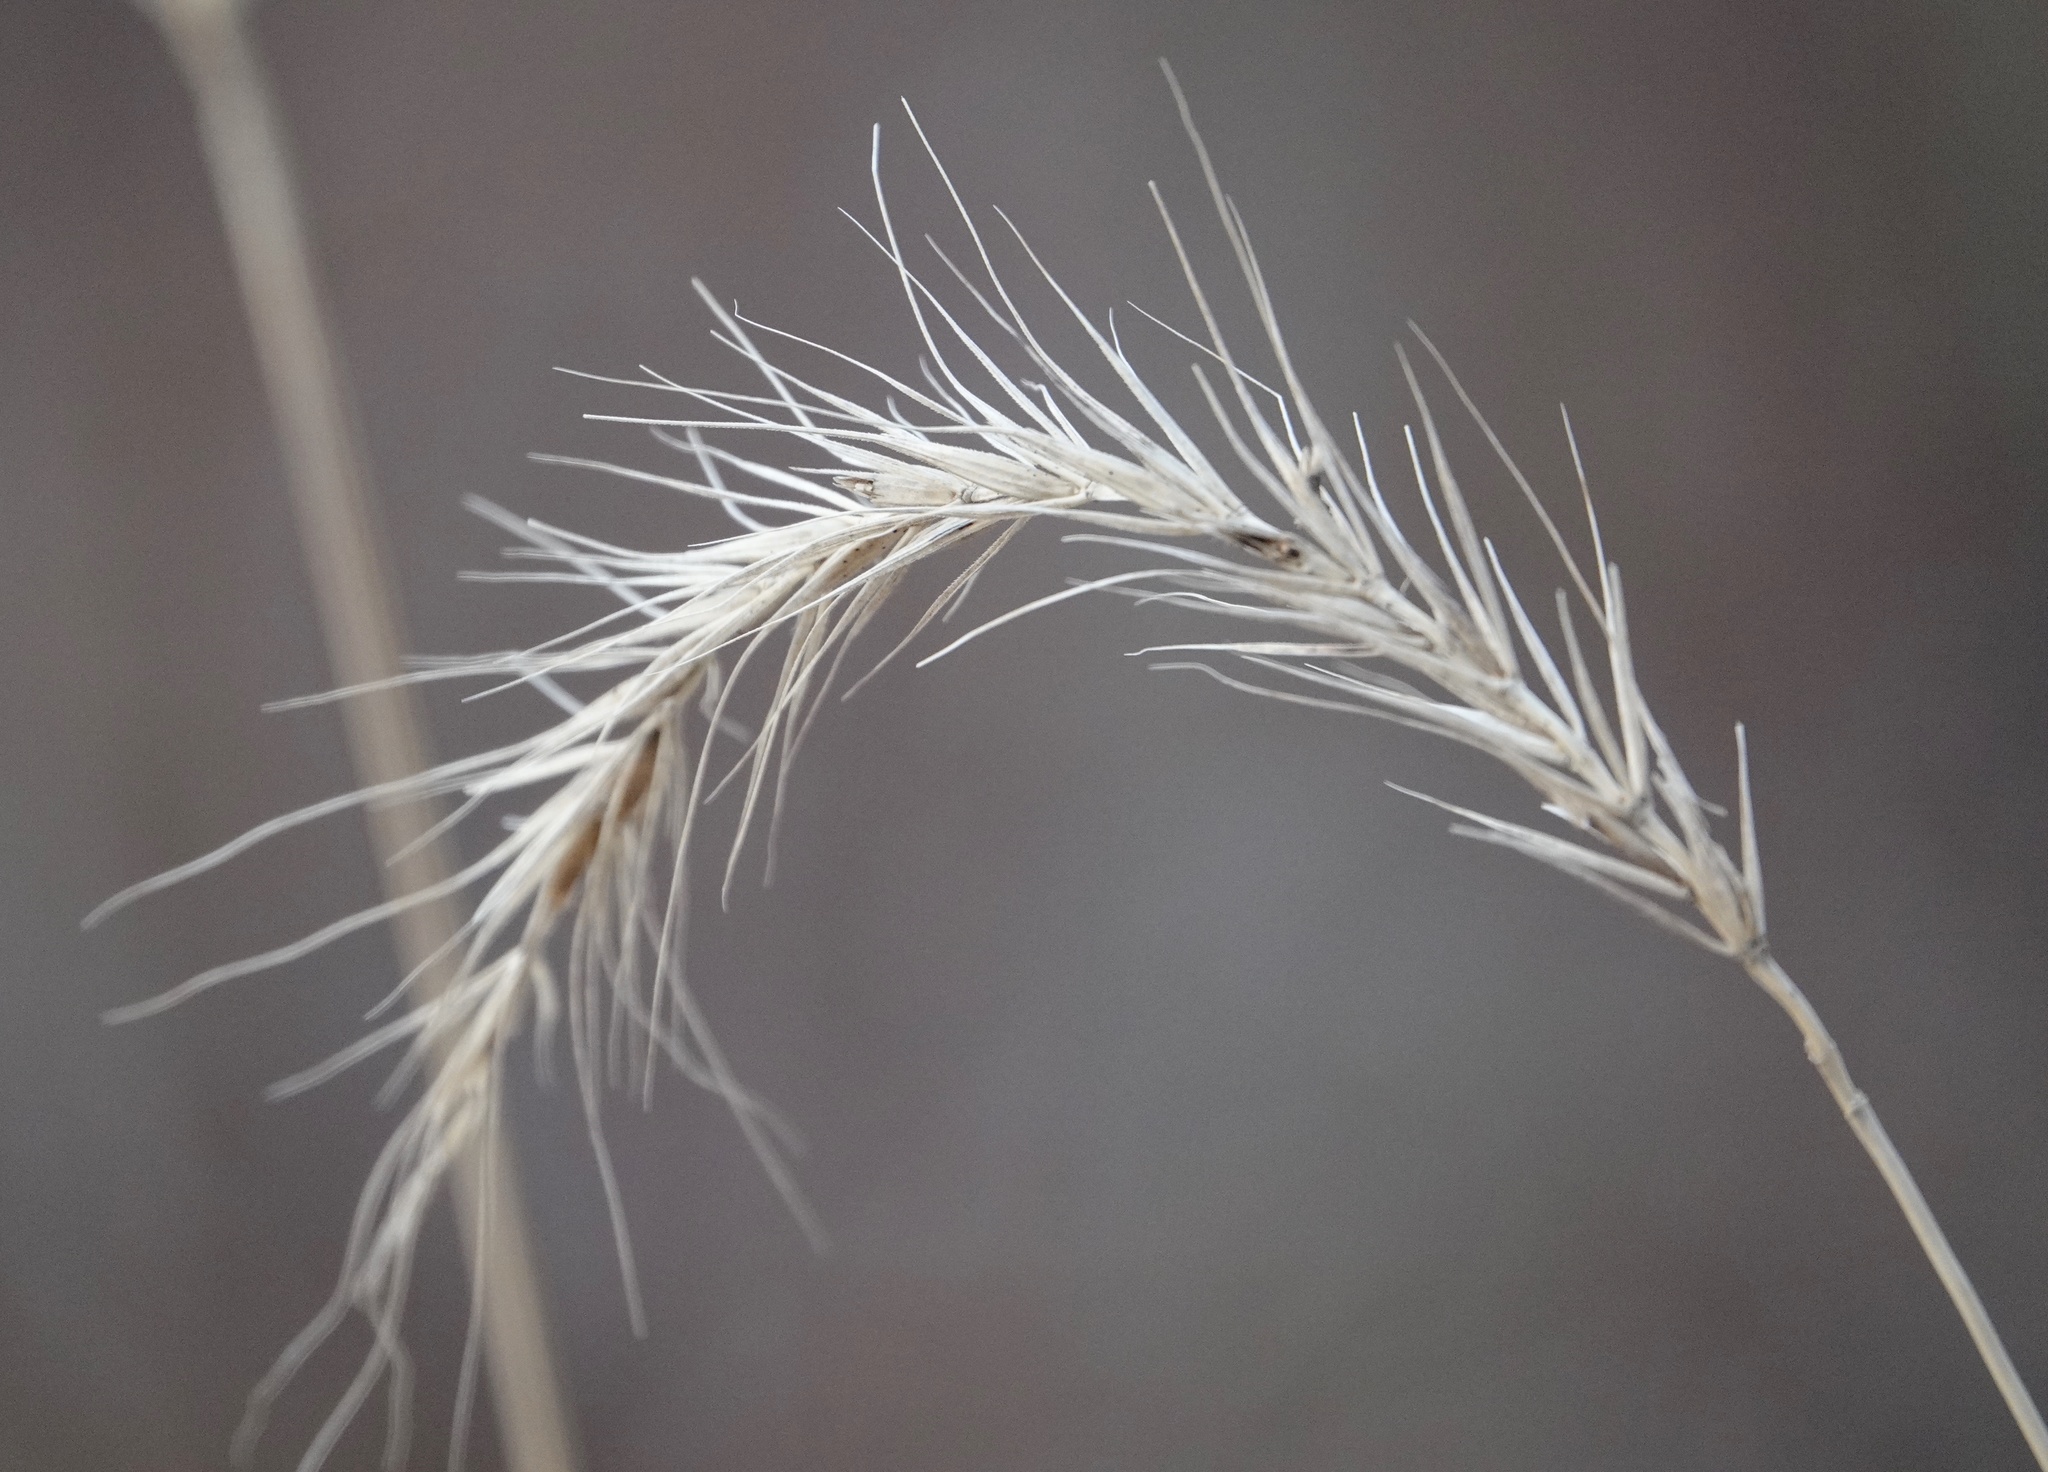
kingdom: Plantae
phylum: Tracheophyta
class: Liliopsida
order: Poales
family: Poaceae
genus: Elymus
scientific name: Elymus canadensis
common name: Canada wild rye
